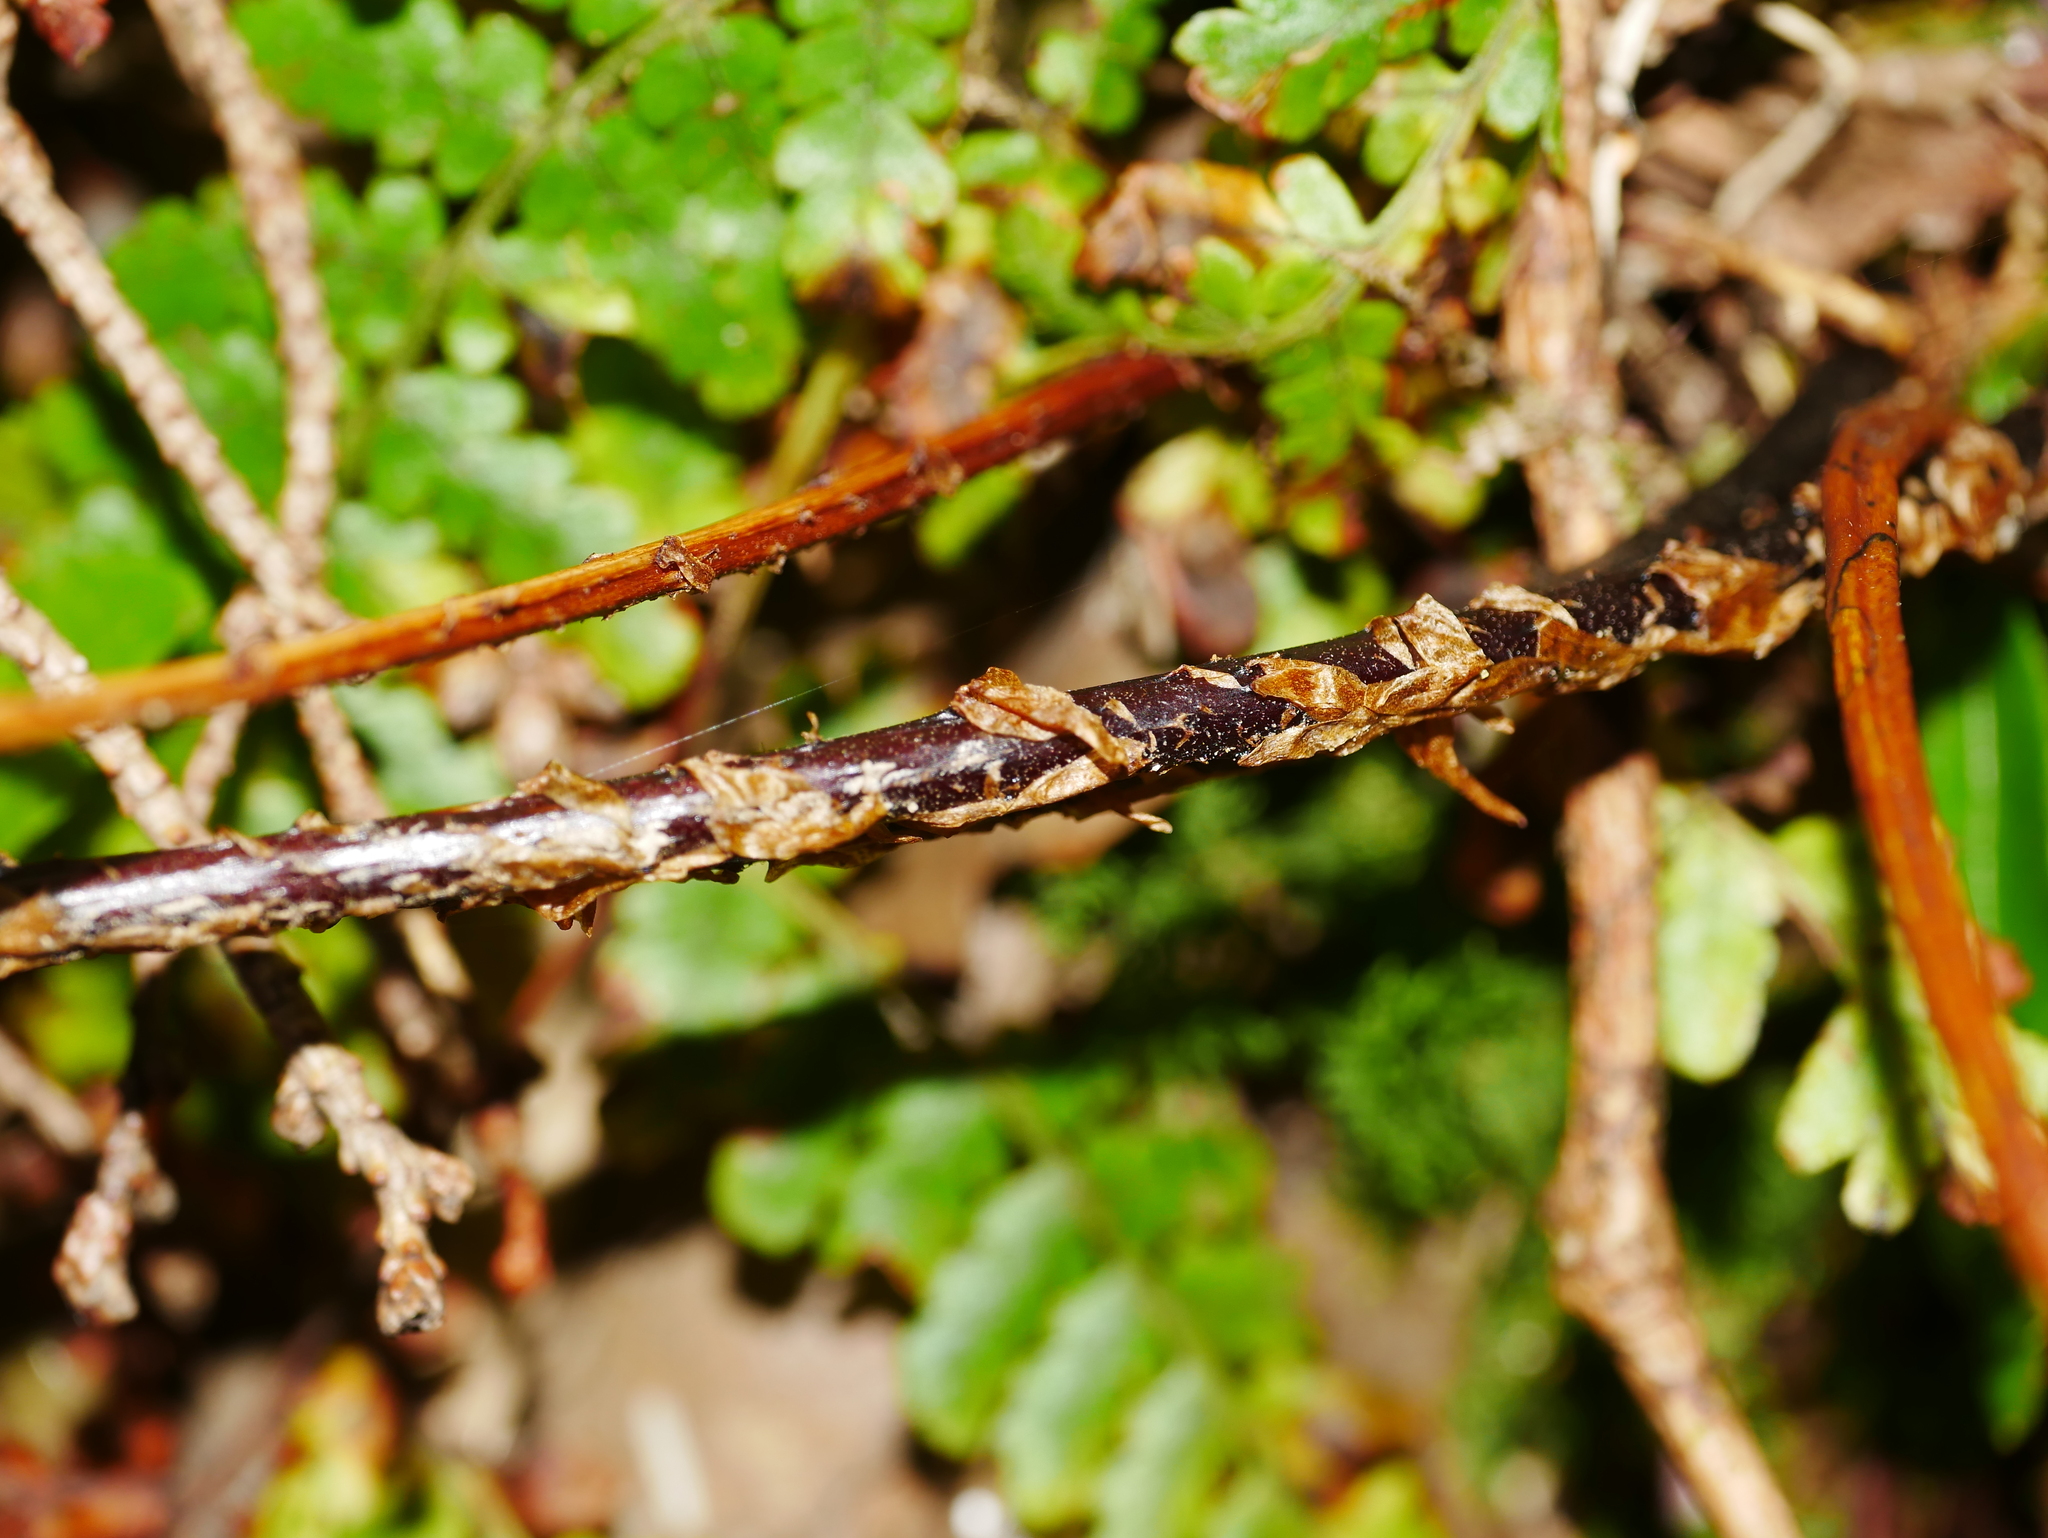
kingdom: Plantae
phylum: Tracheophyta
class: Polypodiopsida
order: Polypodiales
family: Dryopteridaceae
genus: Polystichum
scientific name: Polystichum nepalense
